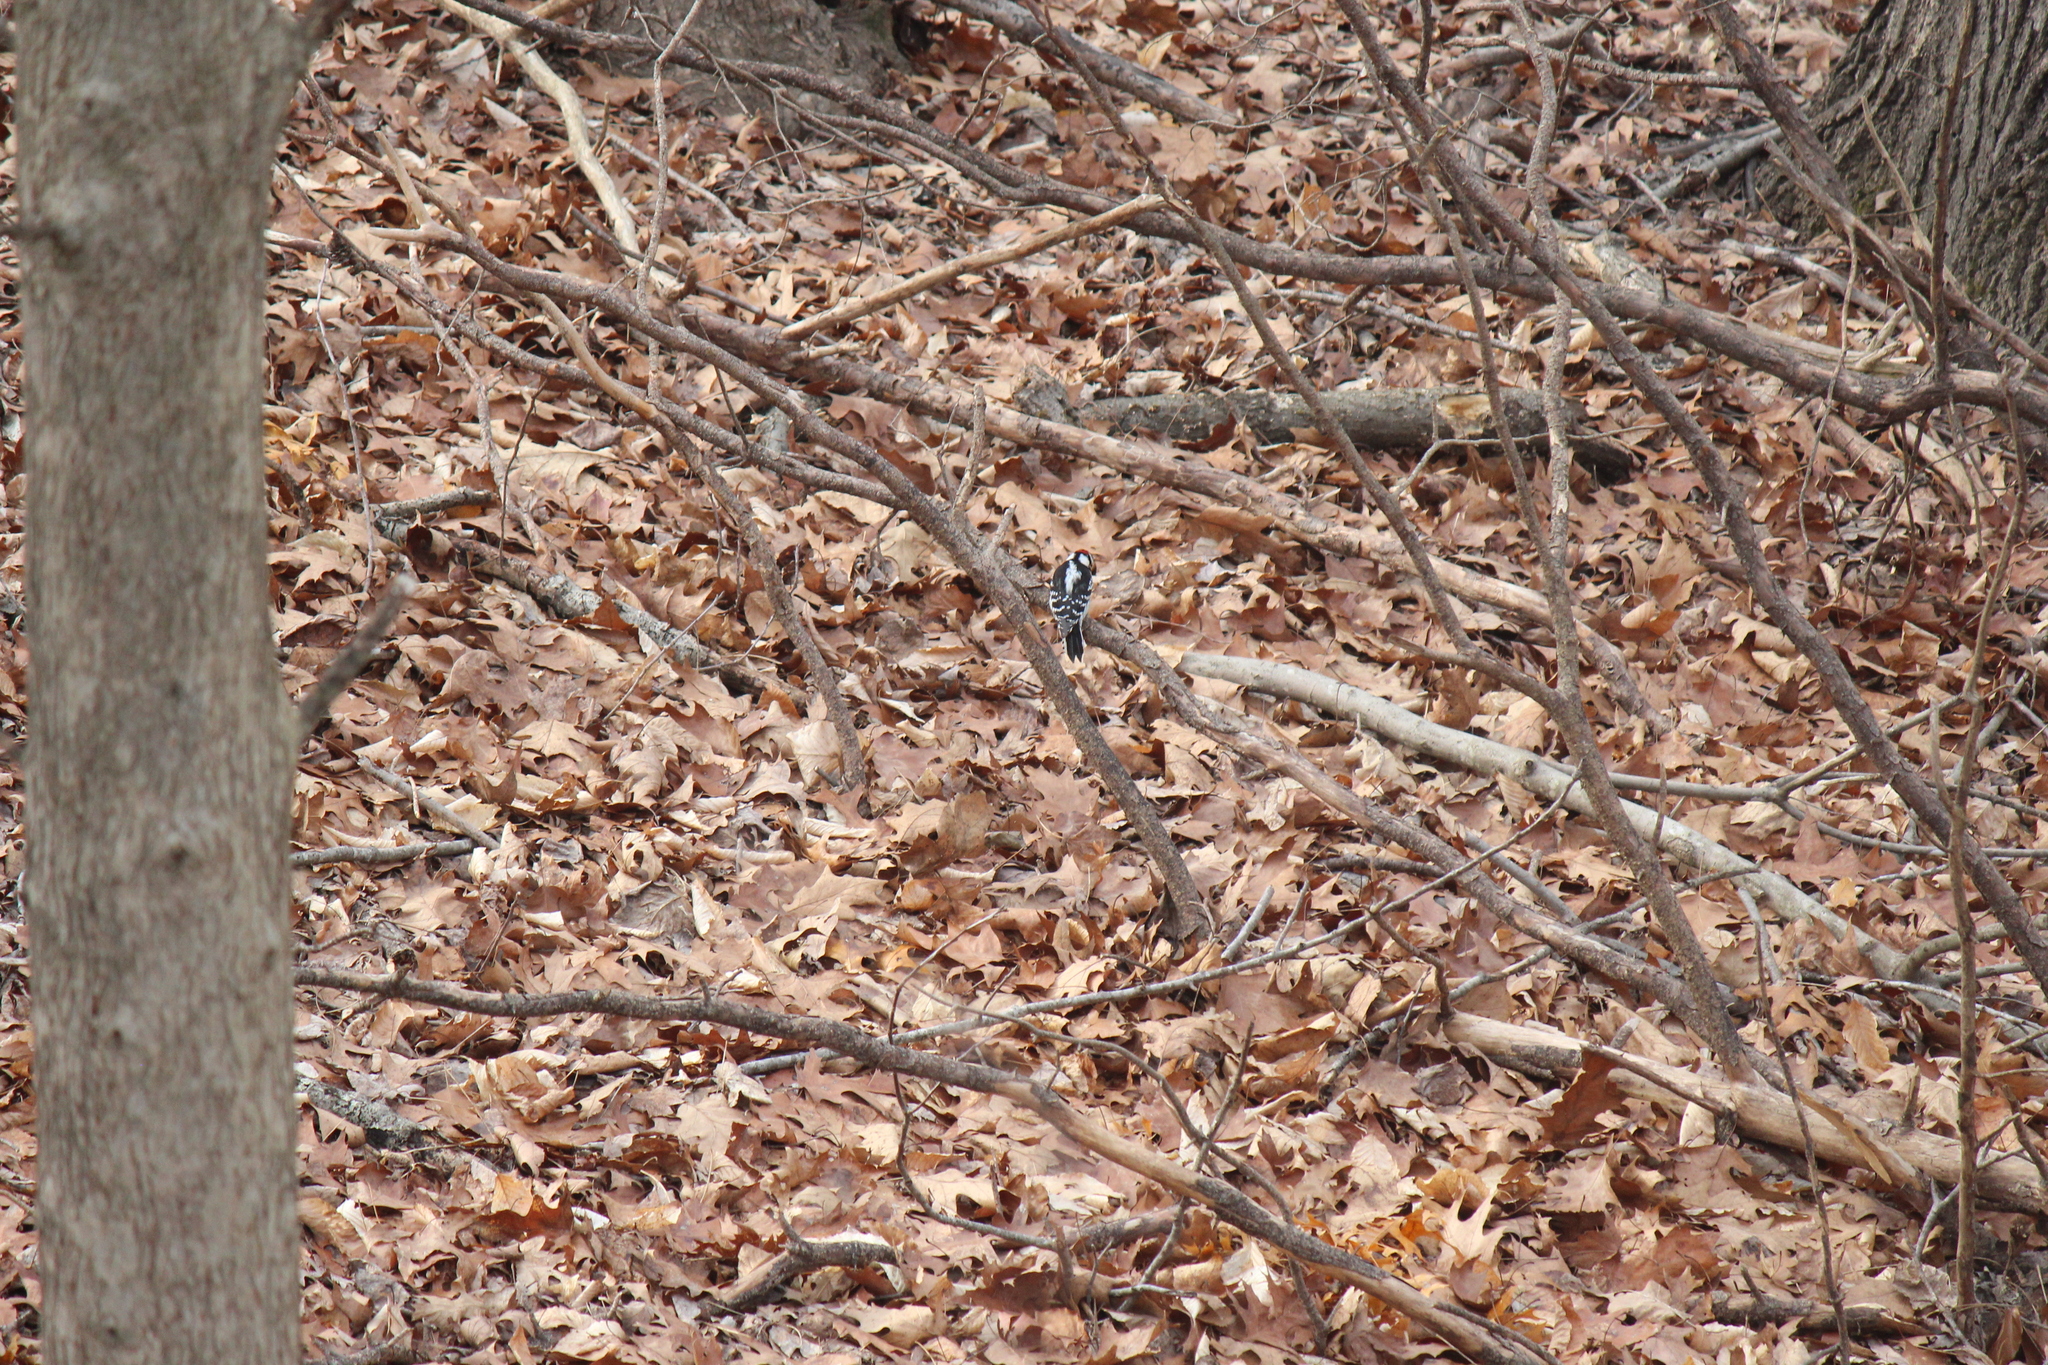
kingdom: Animalia
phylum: Chordata
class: Aves
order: Piciformes
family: Picidae
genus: Dryobates
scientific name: Dryobates pubescens
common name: Downy woodpecker
